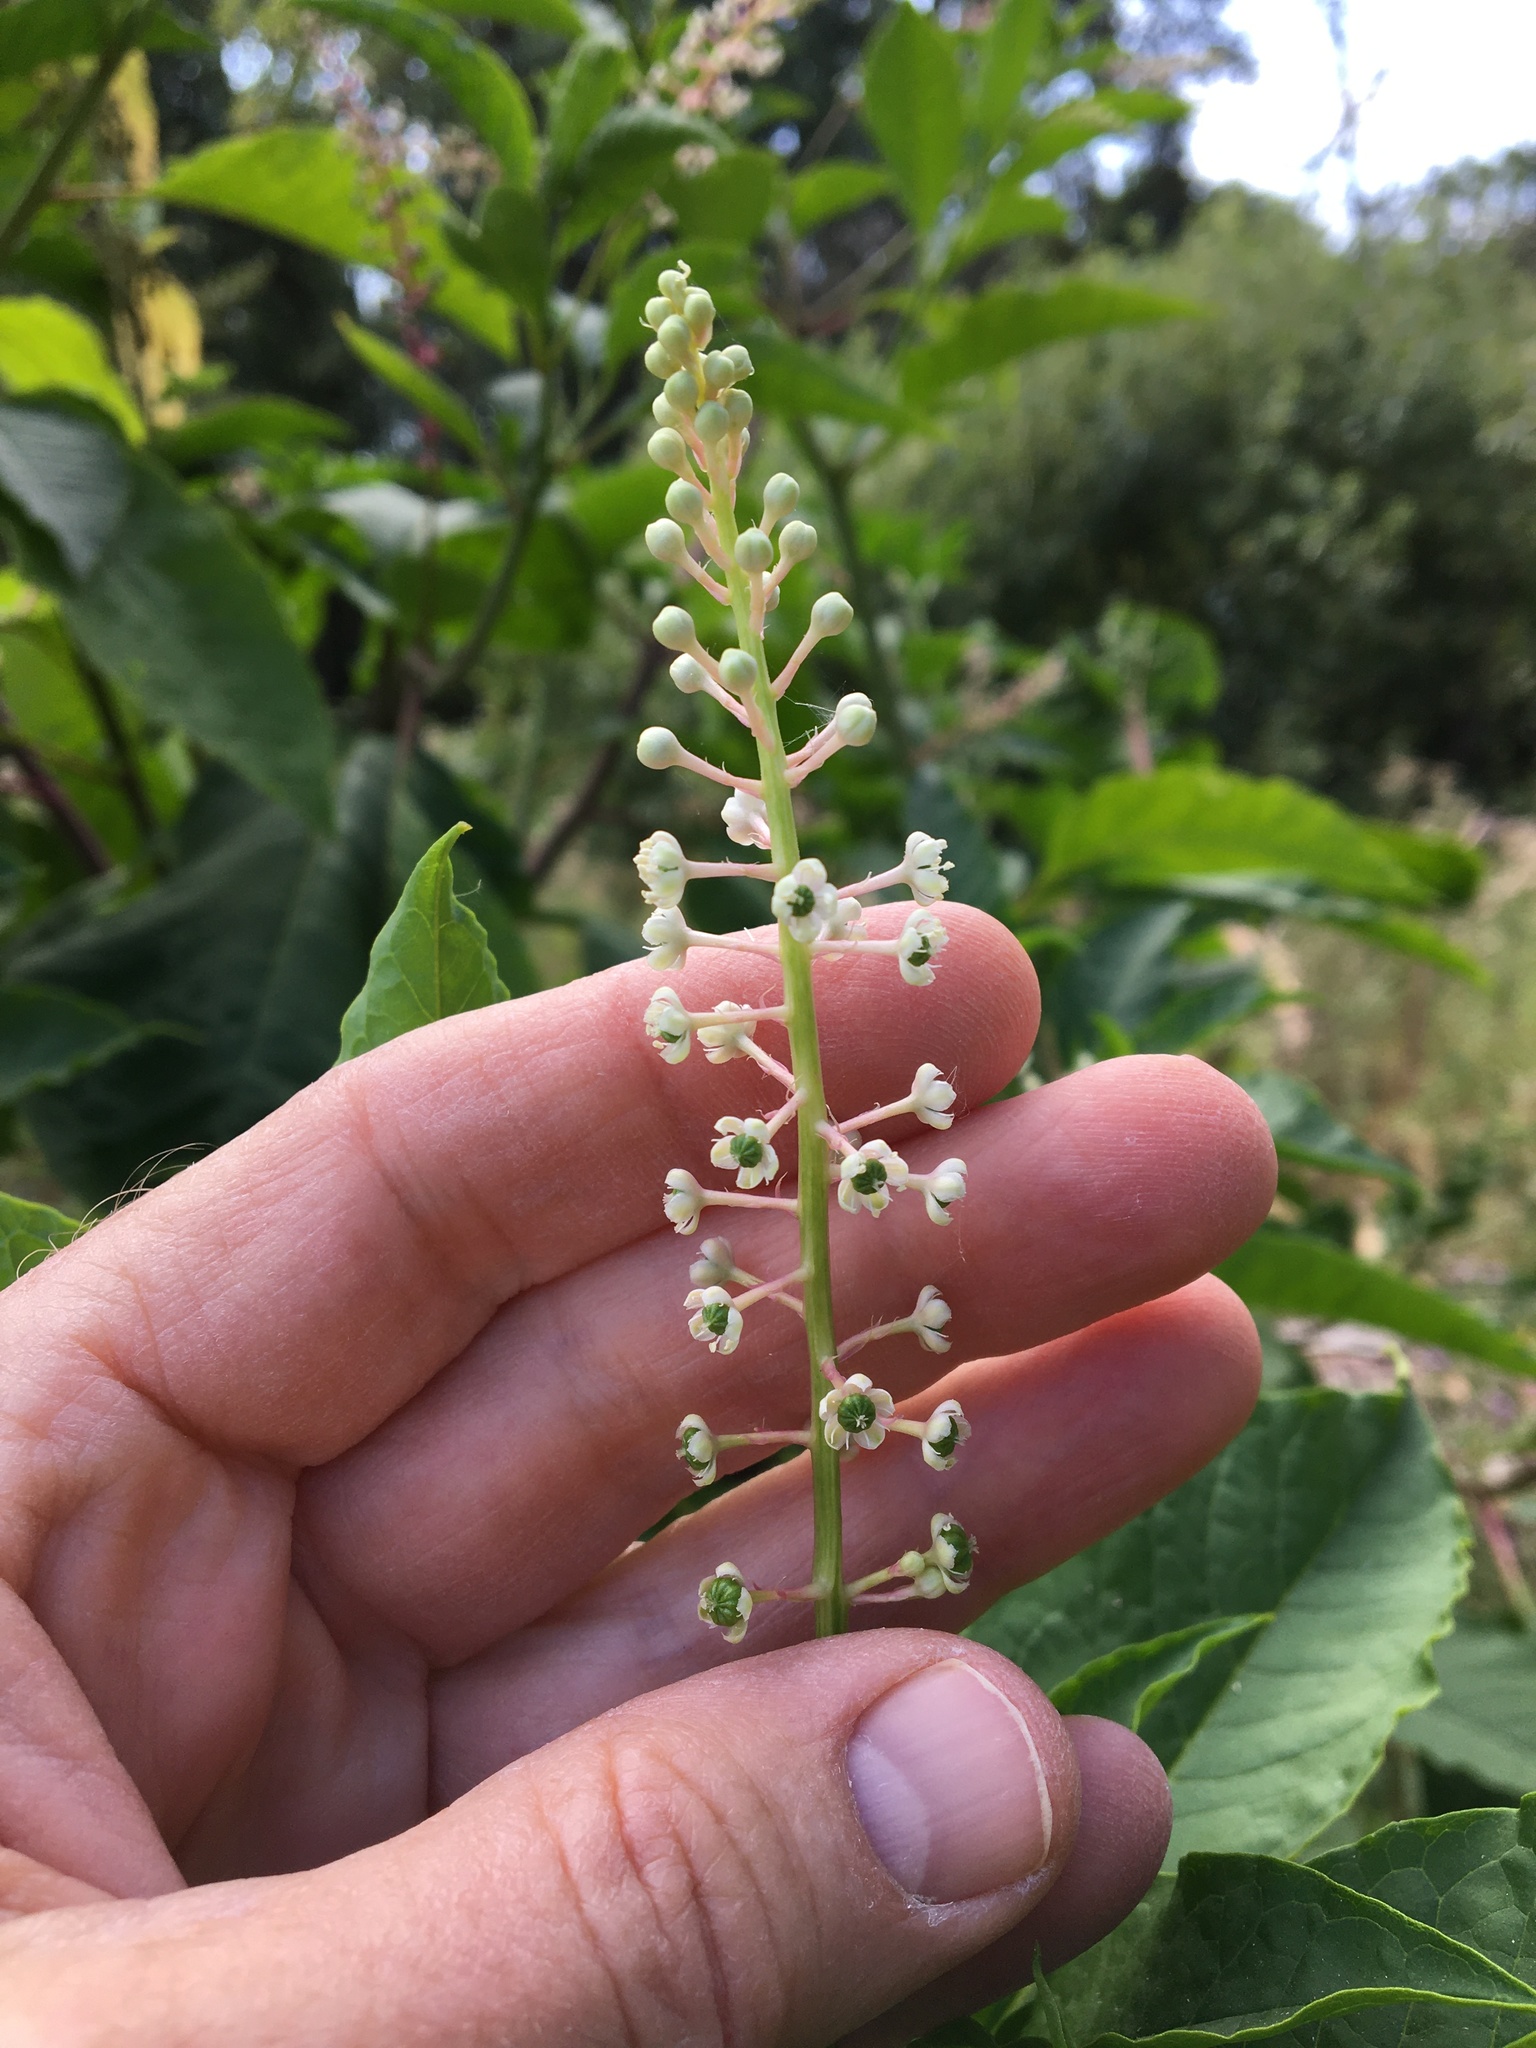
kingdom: Plantae
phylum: Tracheophyta
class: Magnoliopsida
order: Caryophyllales
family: Phytolaccaceae
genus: Phytolacca
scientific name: Phytolacca americana
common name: American pokeweed
